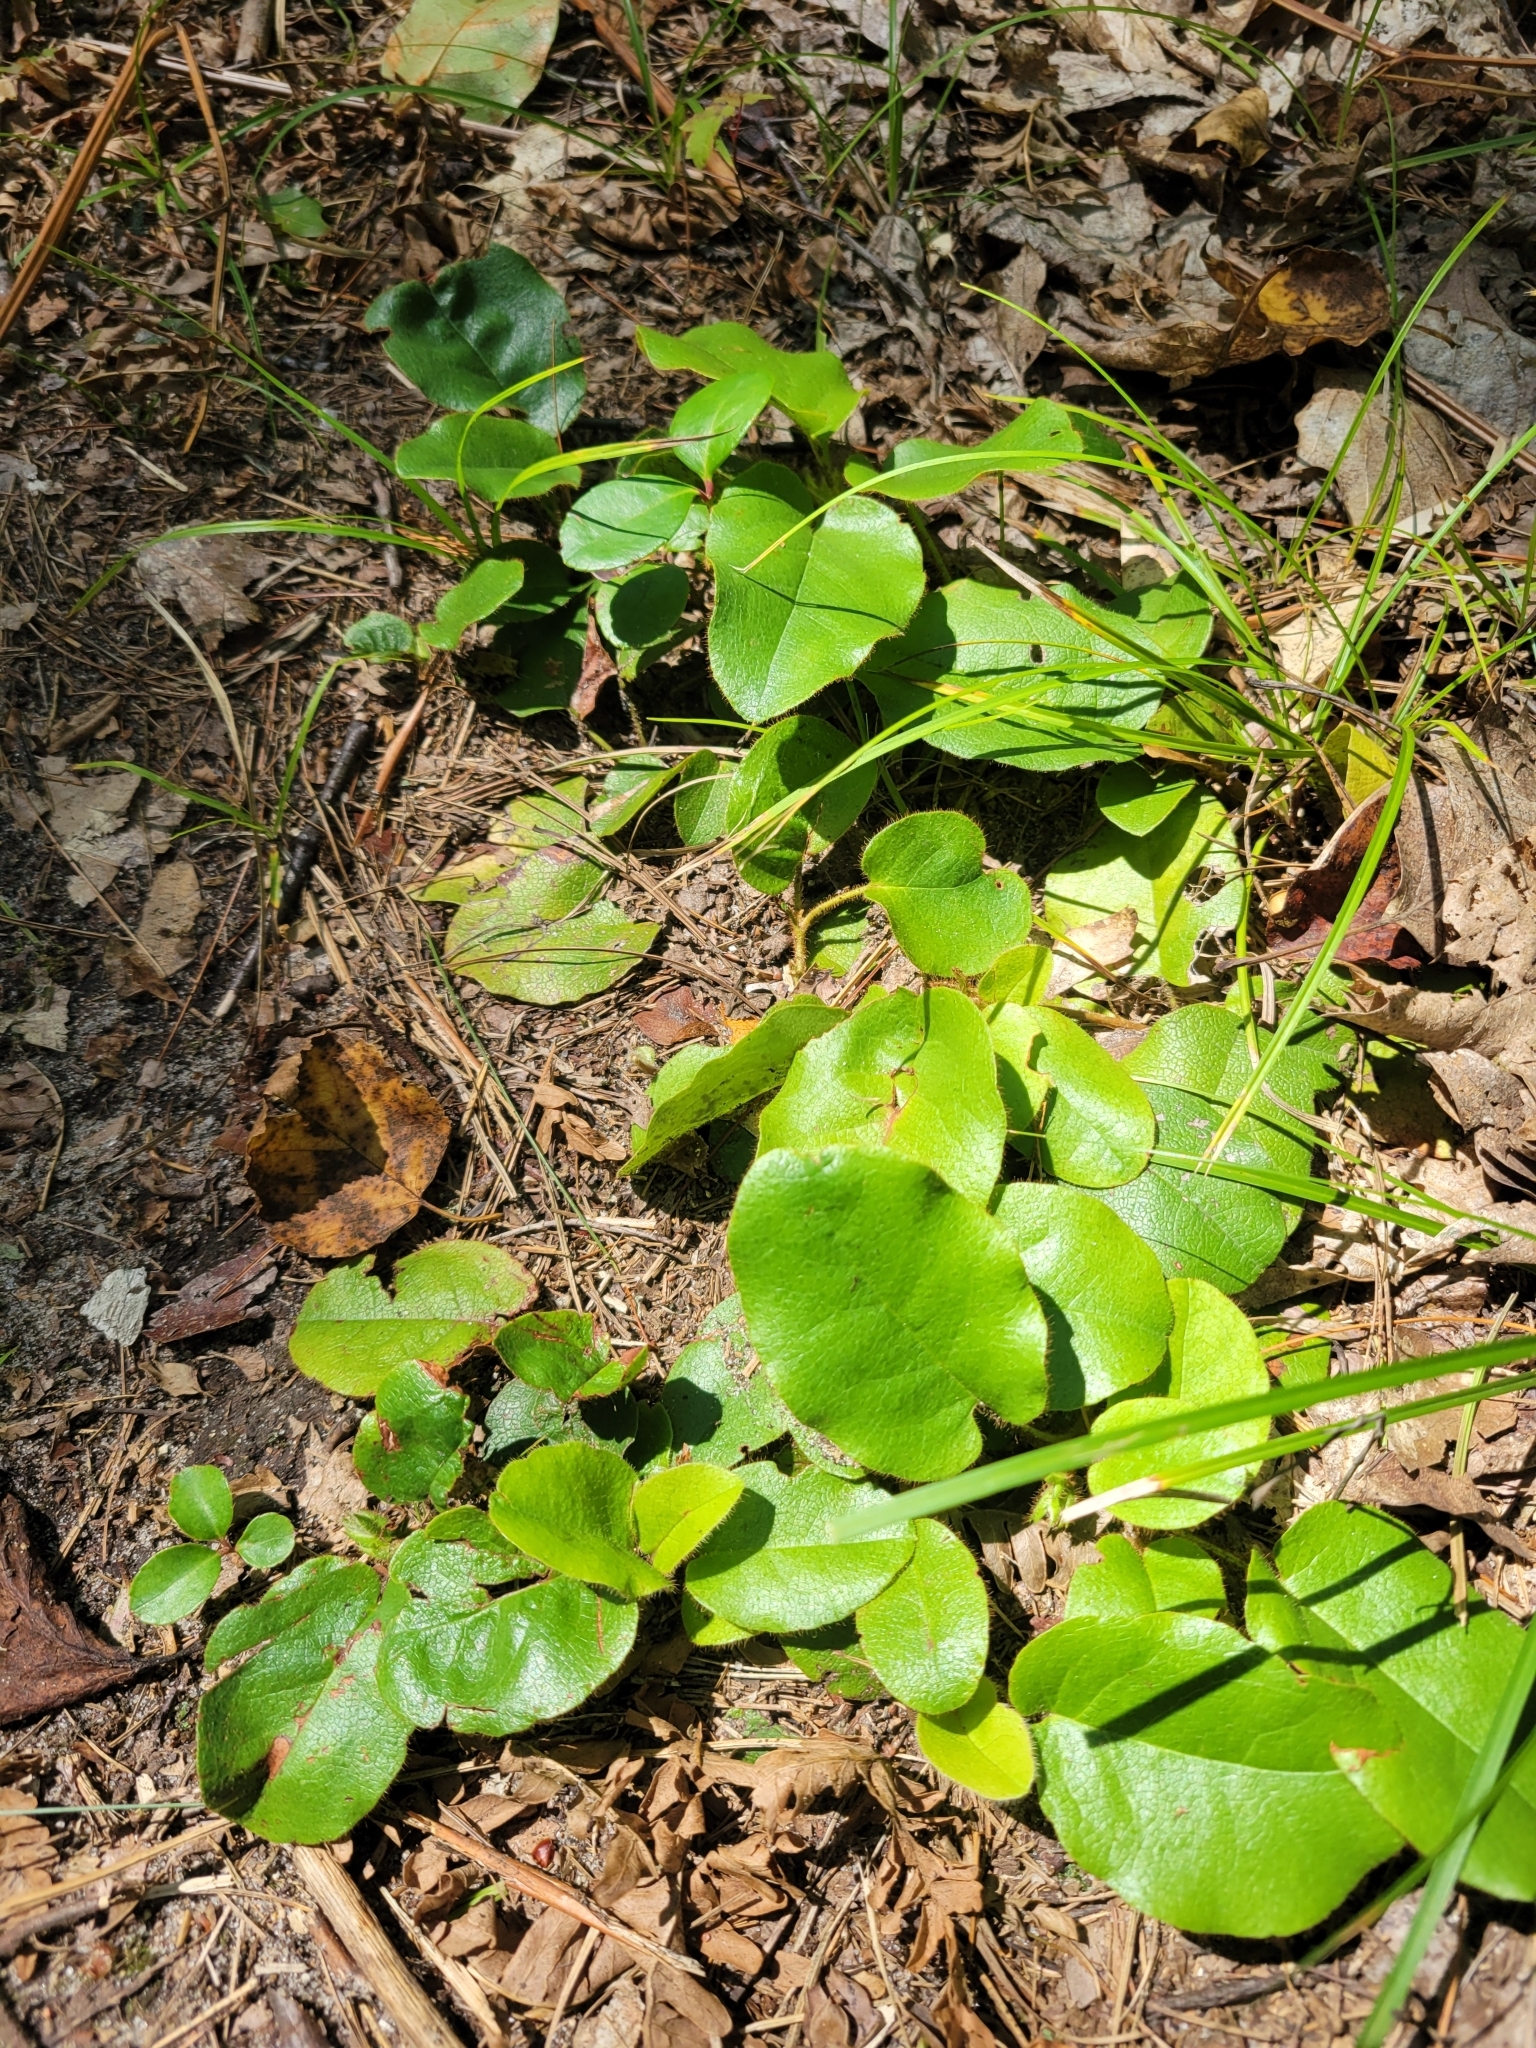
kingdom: Plantae
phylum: Tracheophyta
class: Magnoliopsida
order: Ericales
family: Ericaceae
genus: Epigaea
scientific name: Epigaea repens
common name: Gravelroot
